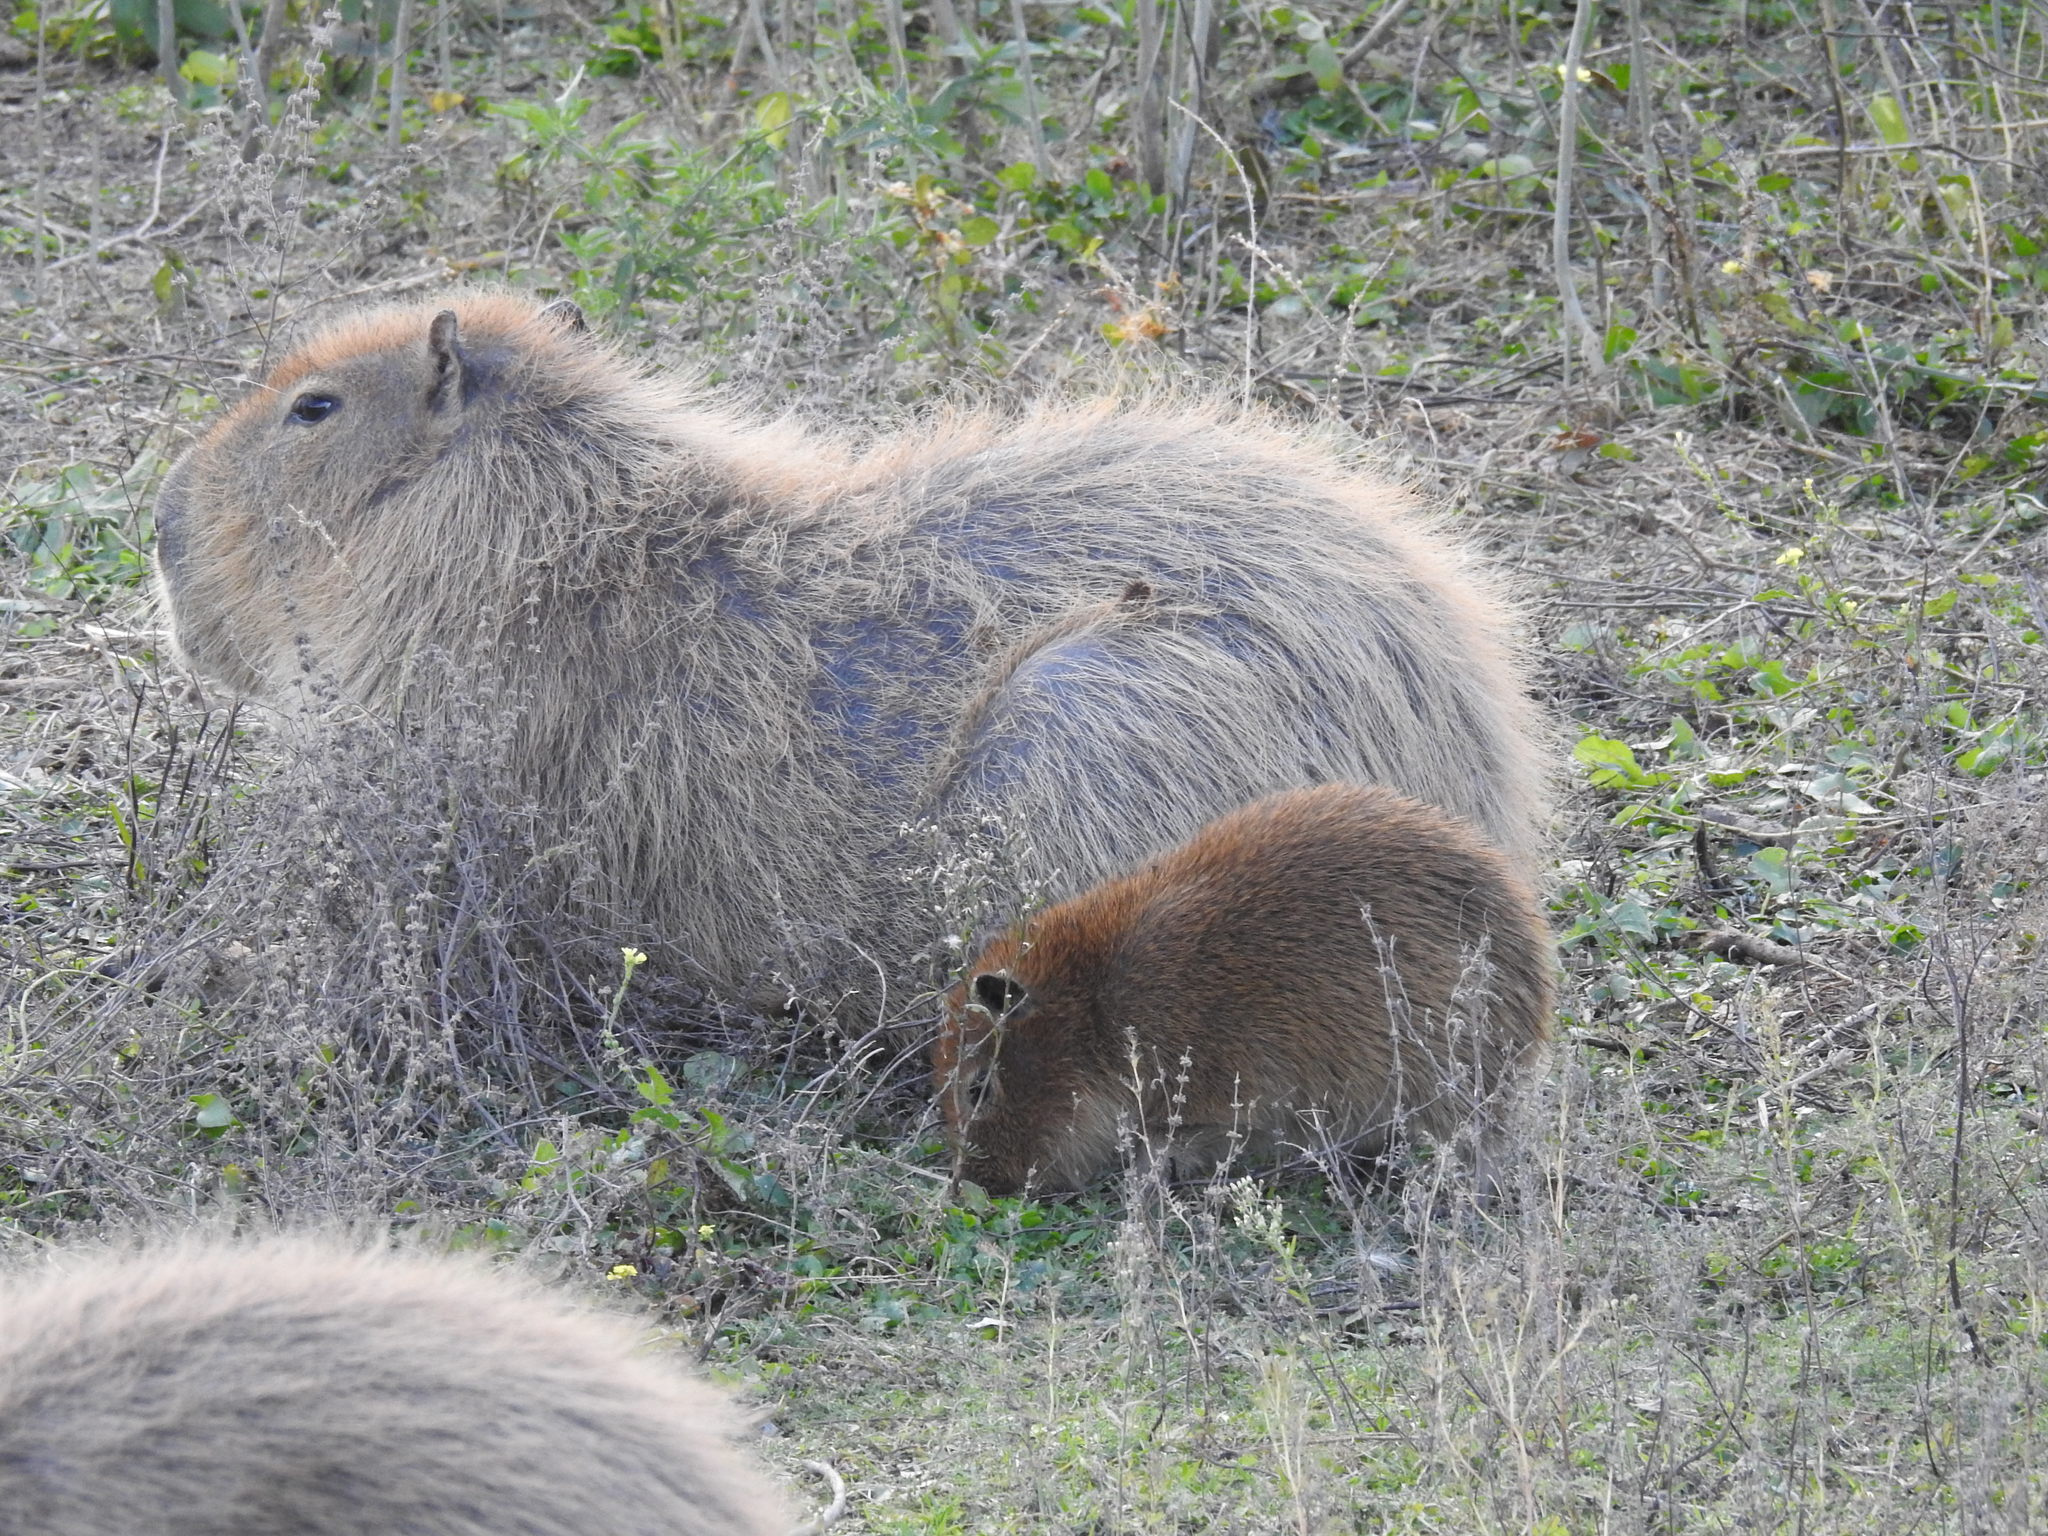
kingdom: Animalia
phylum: Chordata
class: Mammalia
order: Rodentia
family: Caviidae
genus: Hydrochoerus
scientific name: Hydrochoerus hydrochaeris
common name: Capybara
